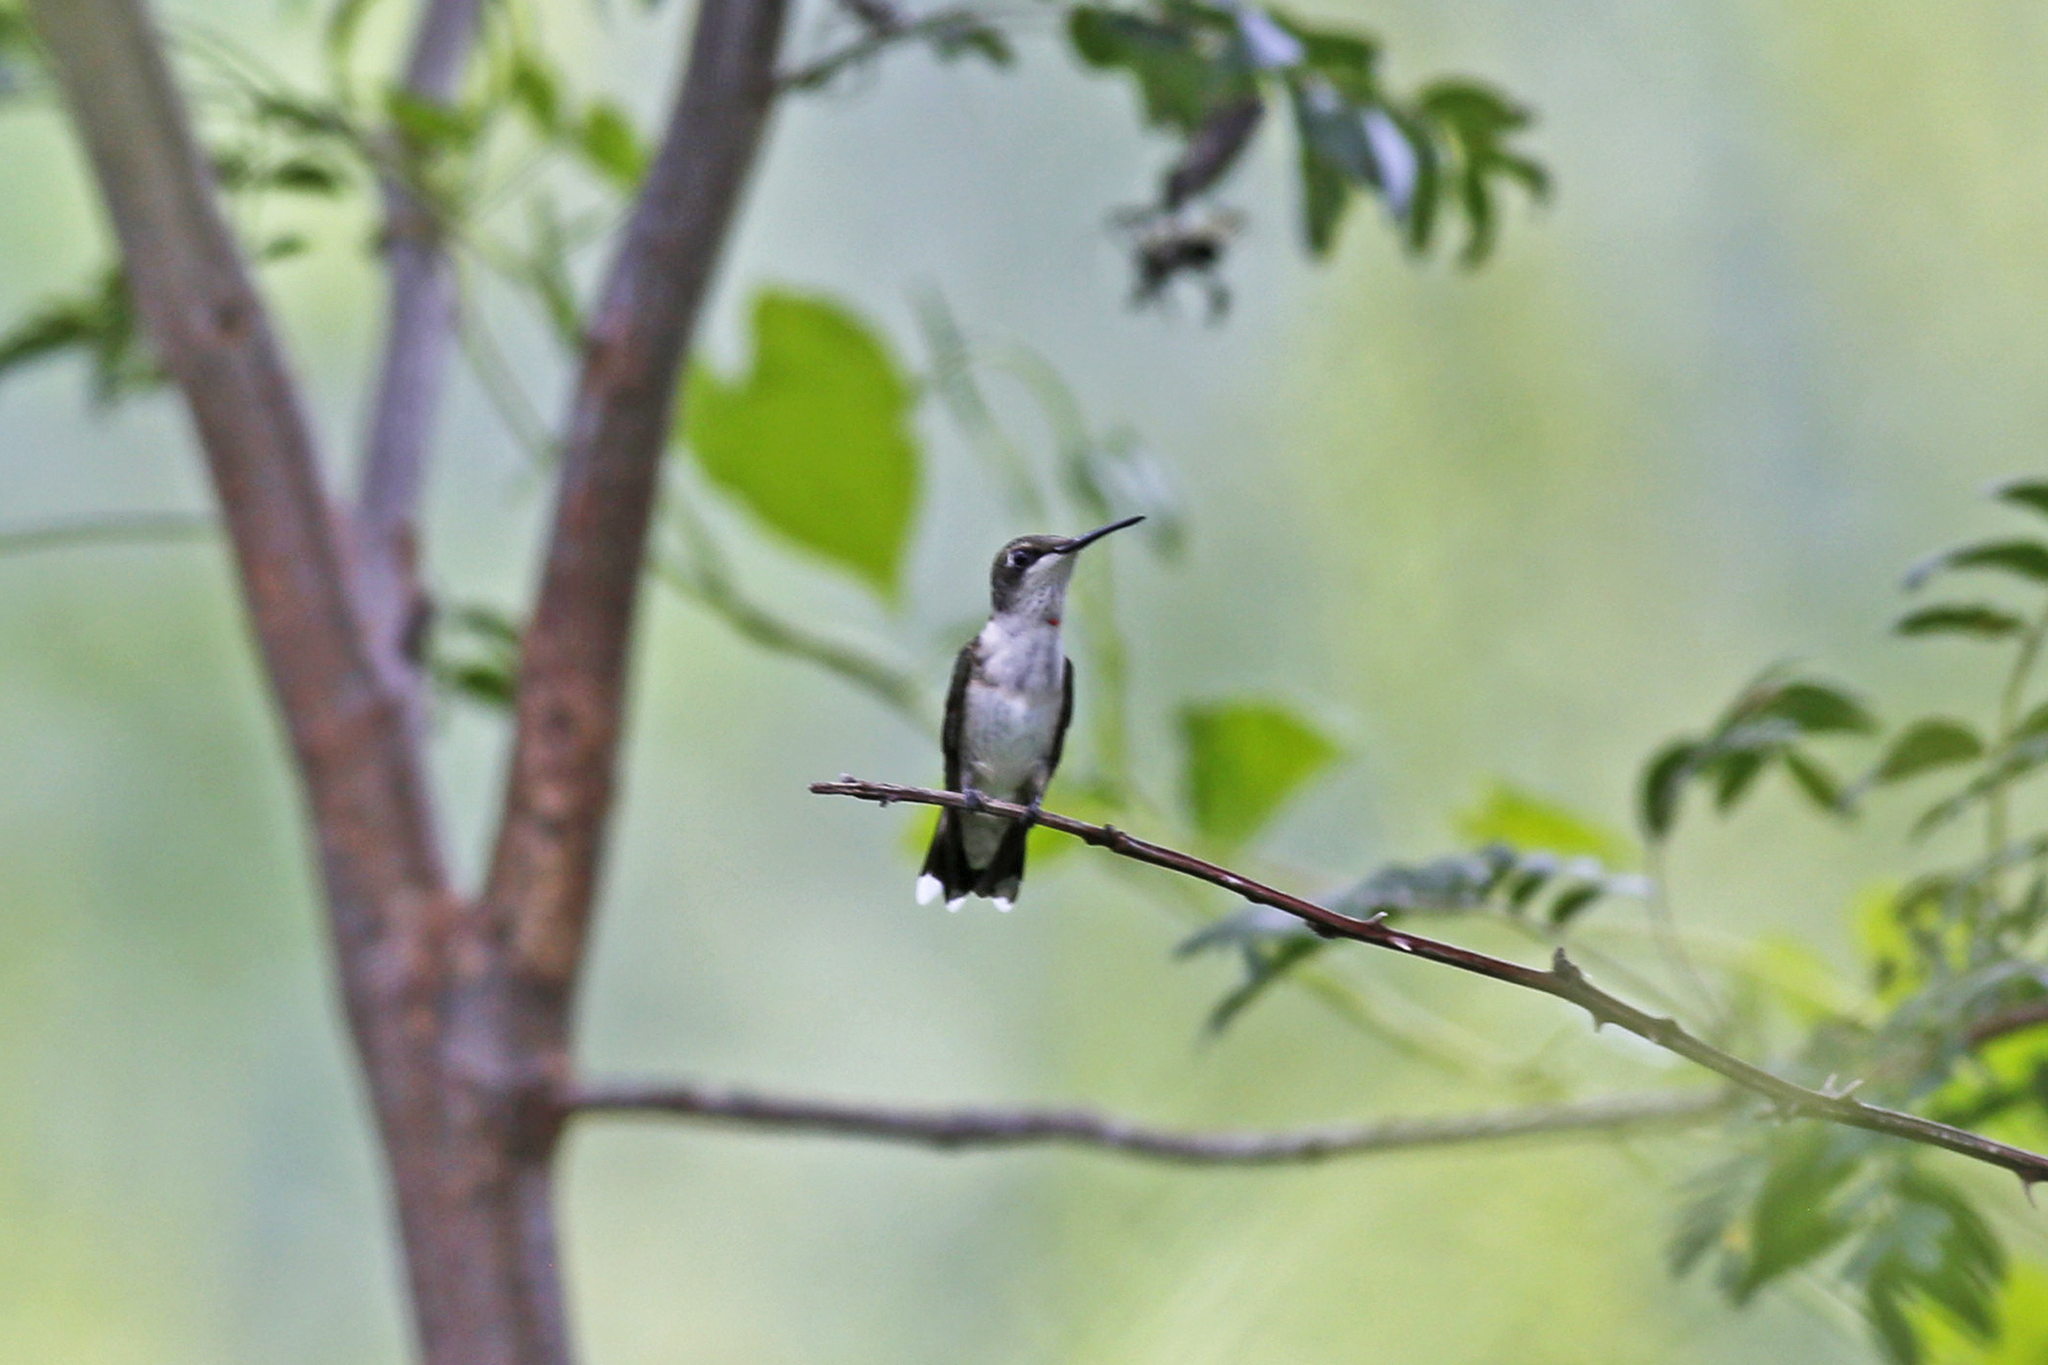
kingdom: Animalia
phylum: Chordata
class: Aves
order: Apodiformes
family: Trochilidae
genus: Archilochus
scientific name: Archilochus colubris
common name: Ruby-throated hummingbird
